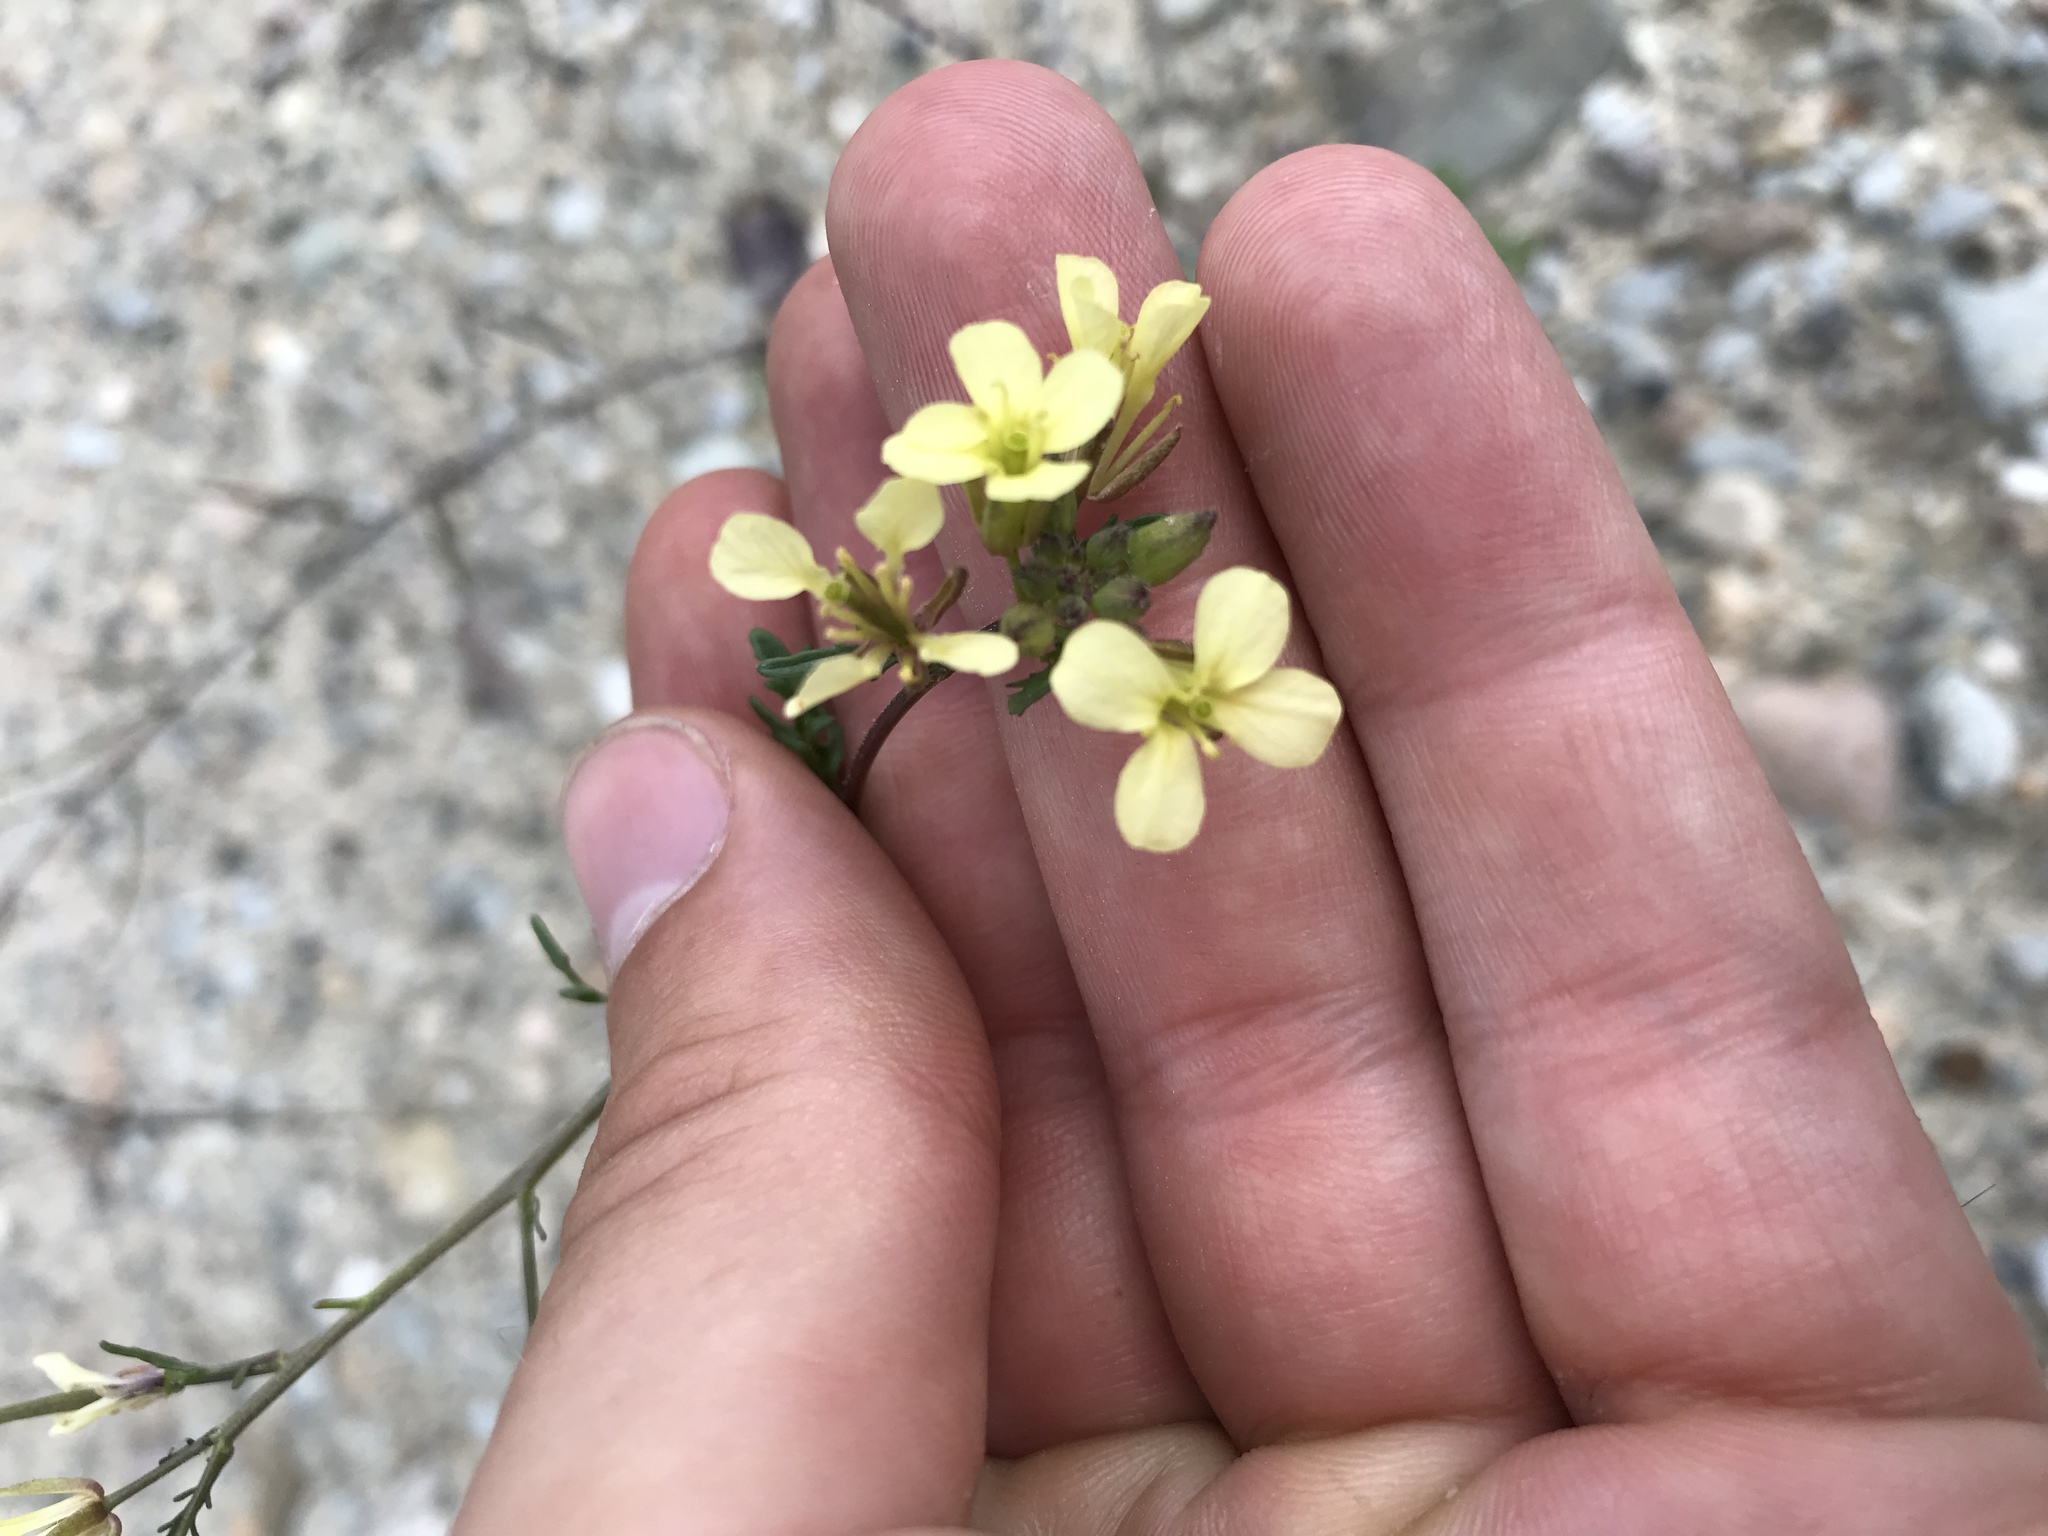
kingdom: Plantae
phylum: Tracheophyta
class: Magnoliopsida
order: Brassicales
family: Brassicaceae
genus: Erucastrum
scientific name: Erucastrum gallicum
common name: Hairy rocket
